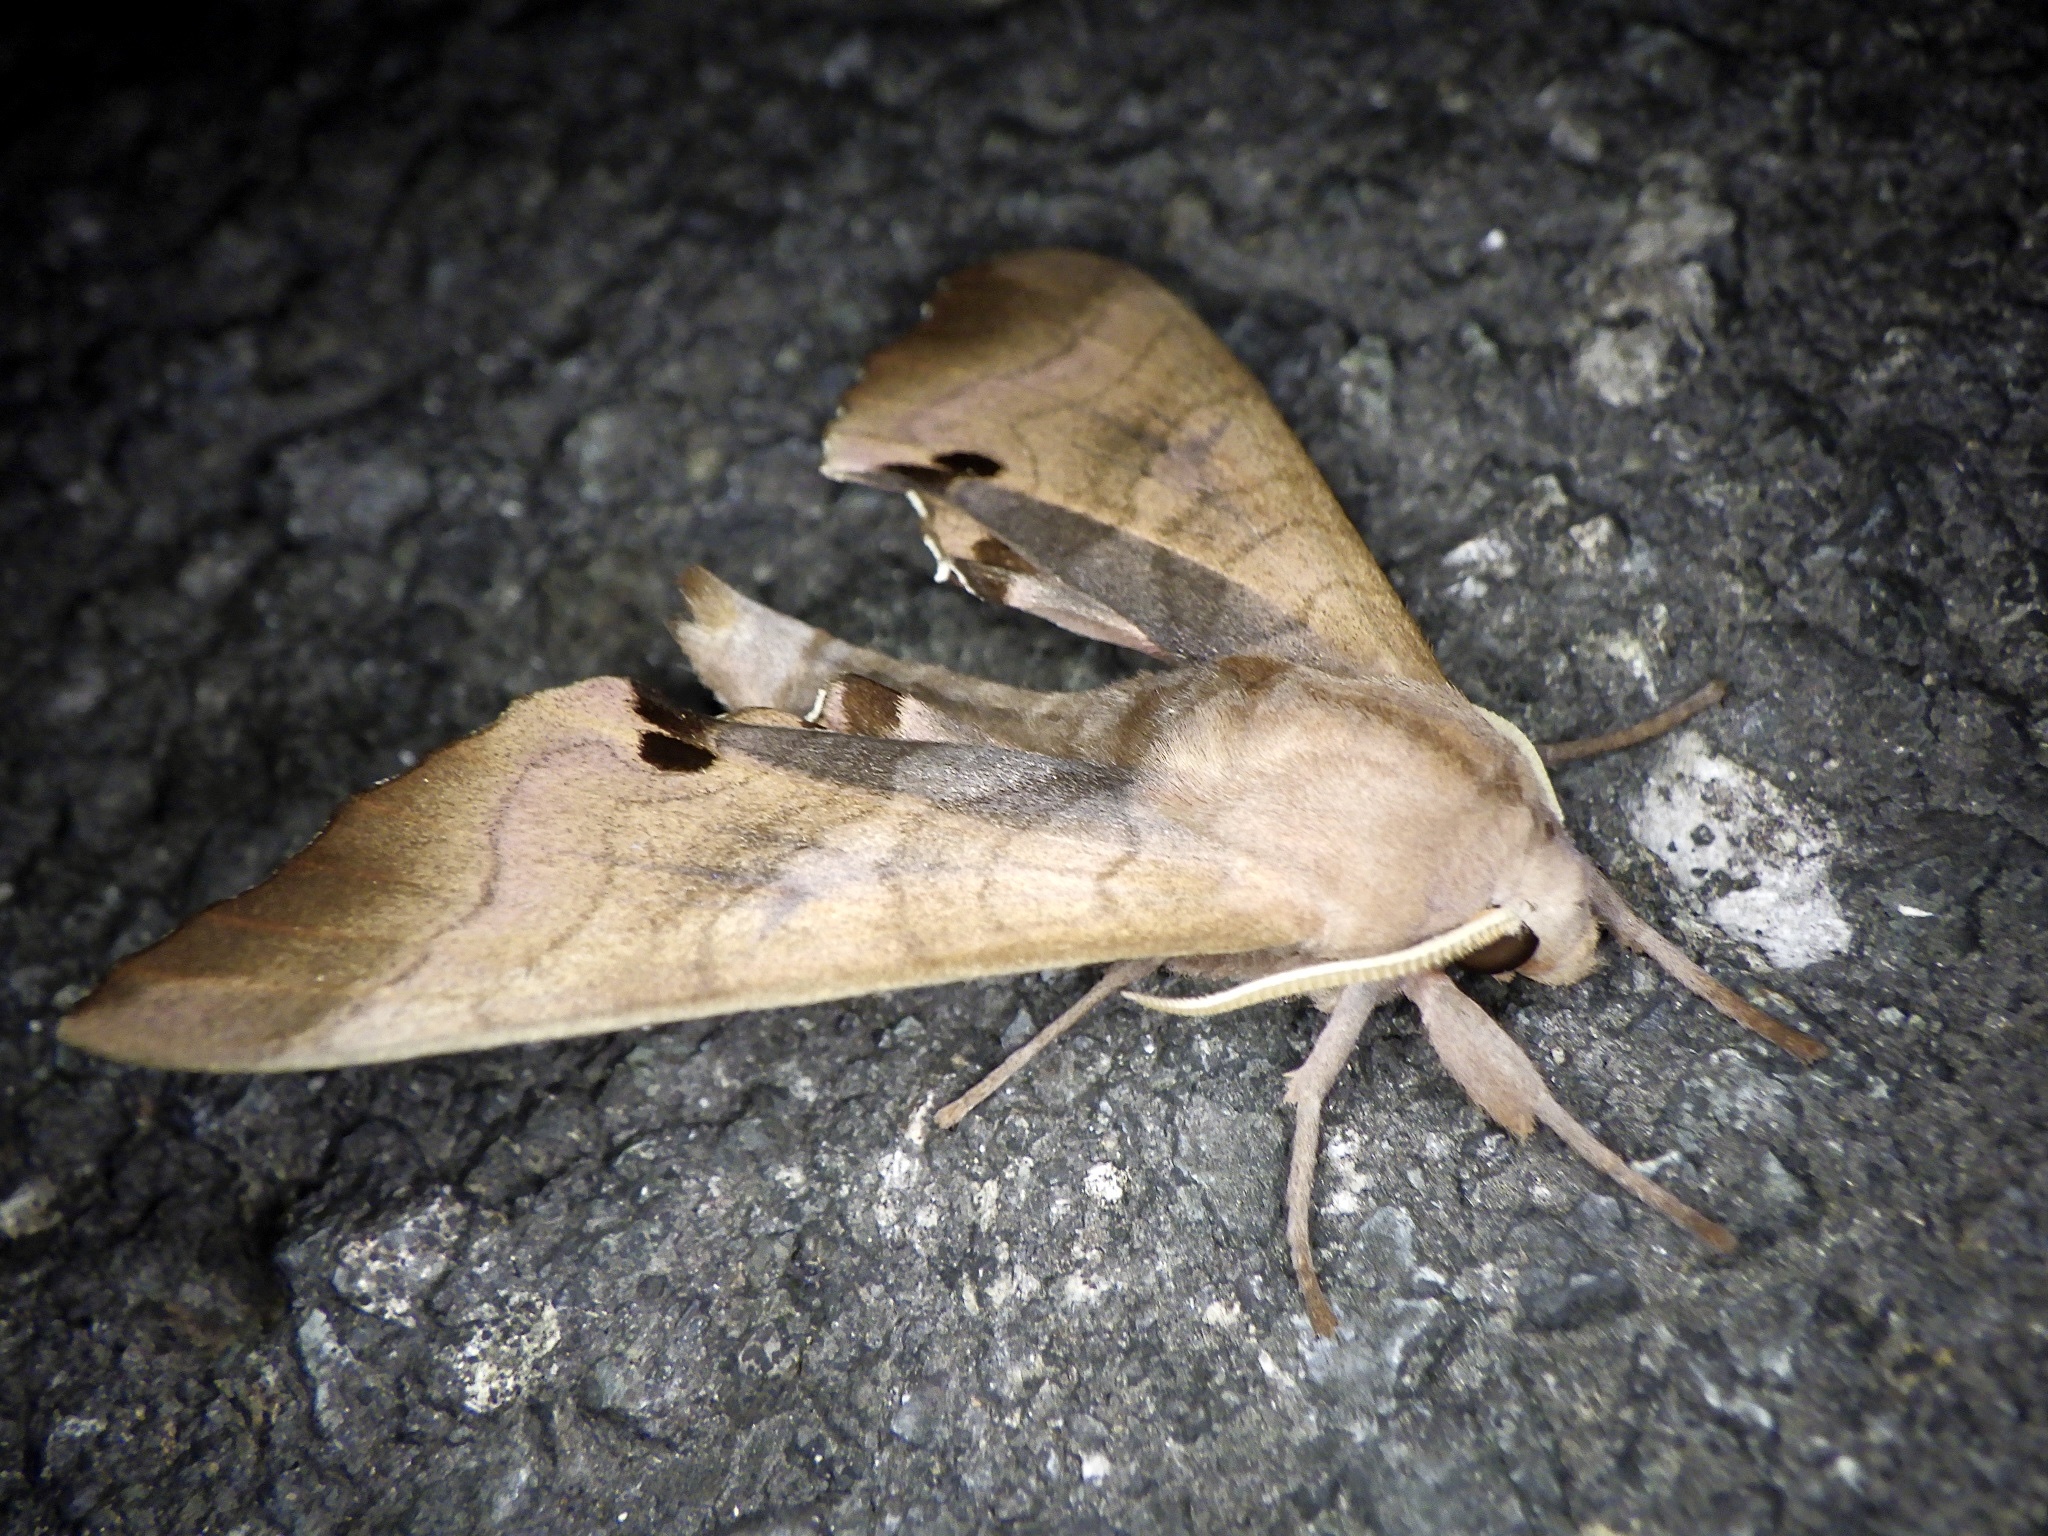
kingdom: Animalia
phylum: Arthropoda
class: Insecta
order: Lepidoptera
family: Sphingidae
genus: Marumba
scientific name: Marumba echephron
